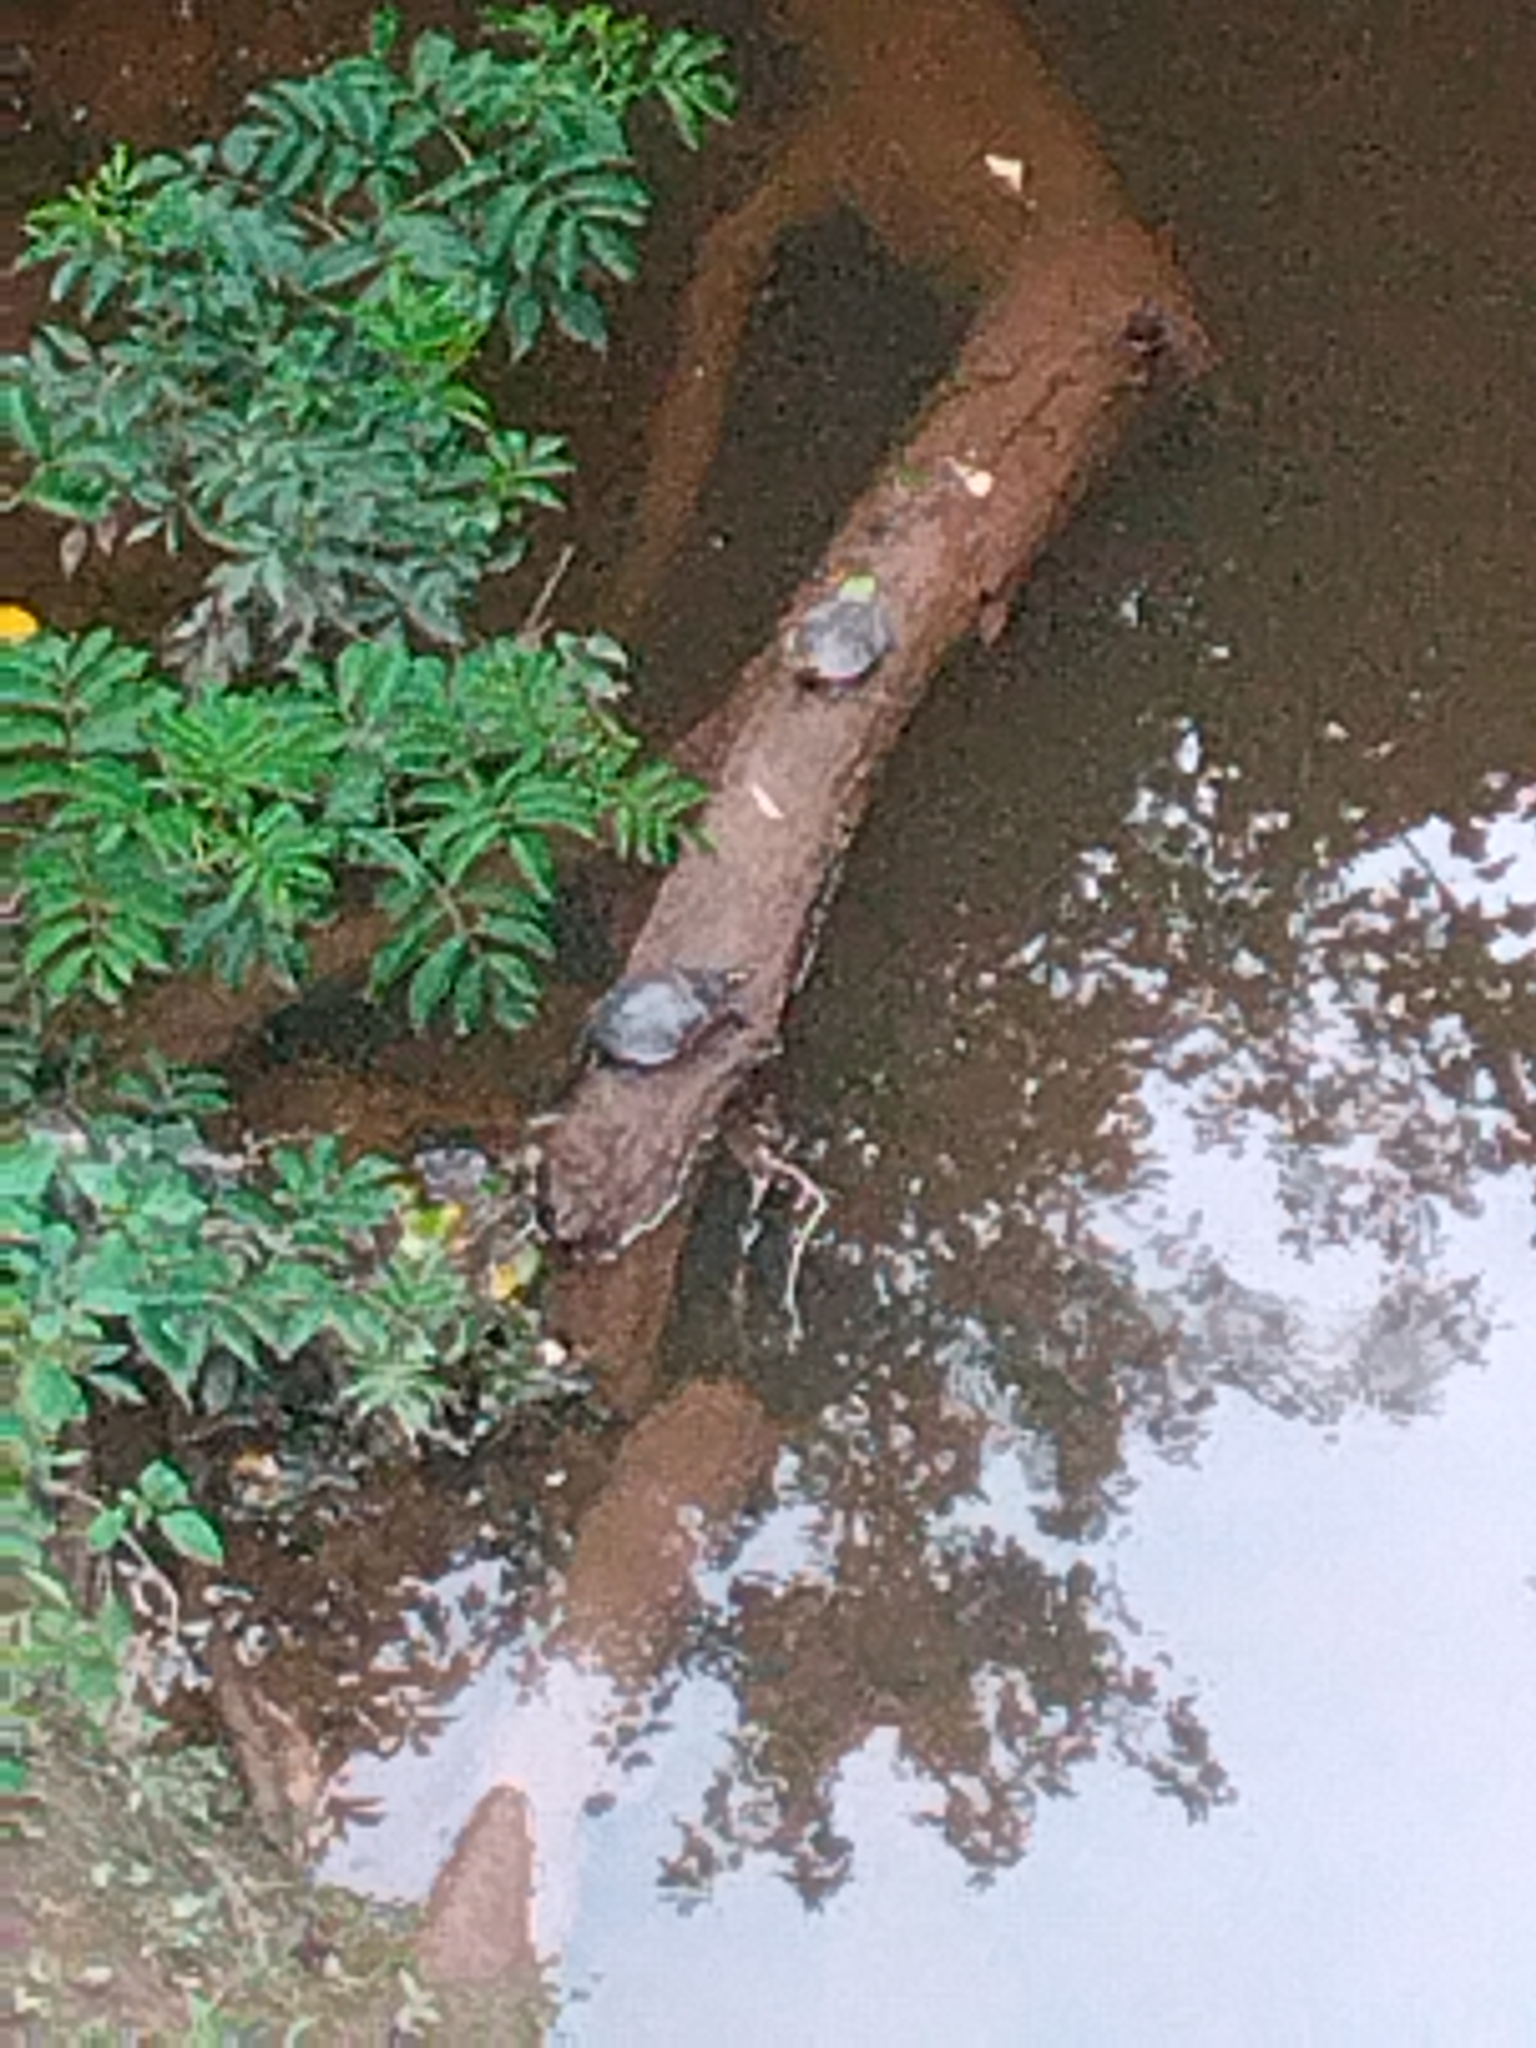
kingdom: Animalia
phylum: Chordata
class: Testudines
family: Emydidae
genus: Chrysemys
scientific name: Chrysemys picta
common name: Painted turtle
